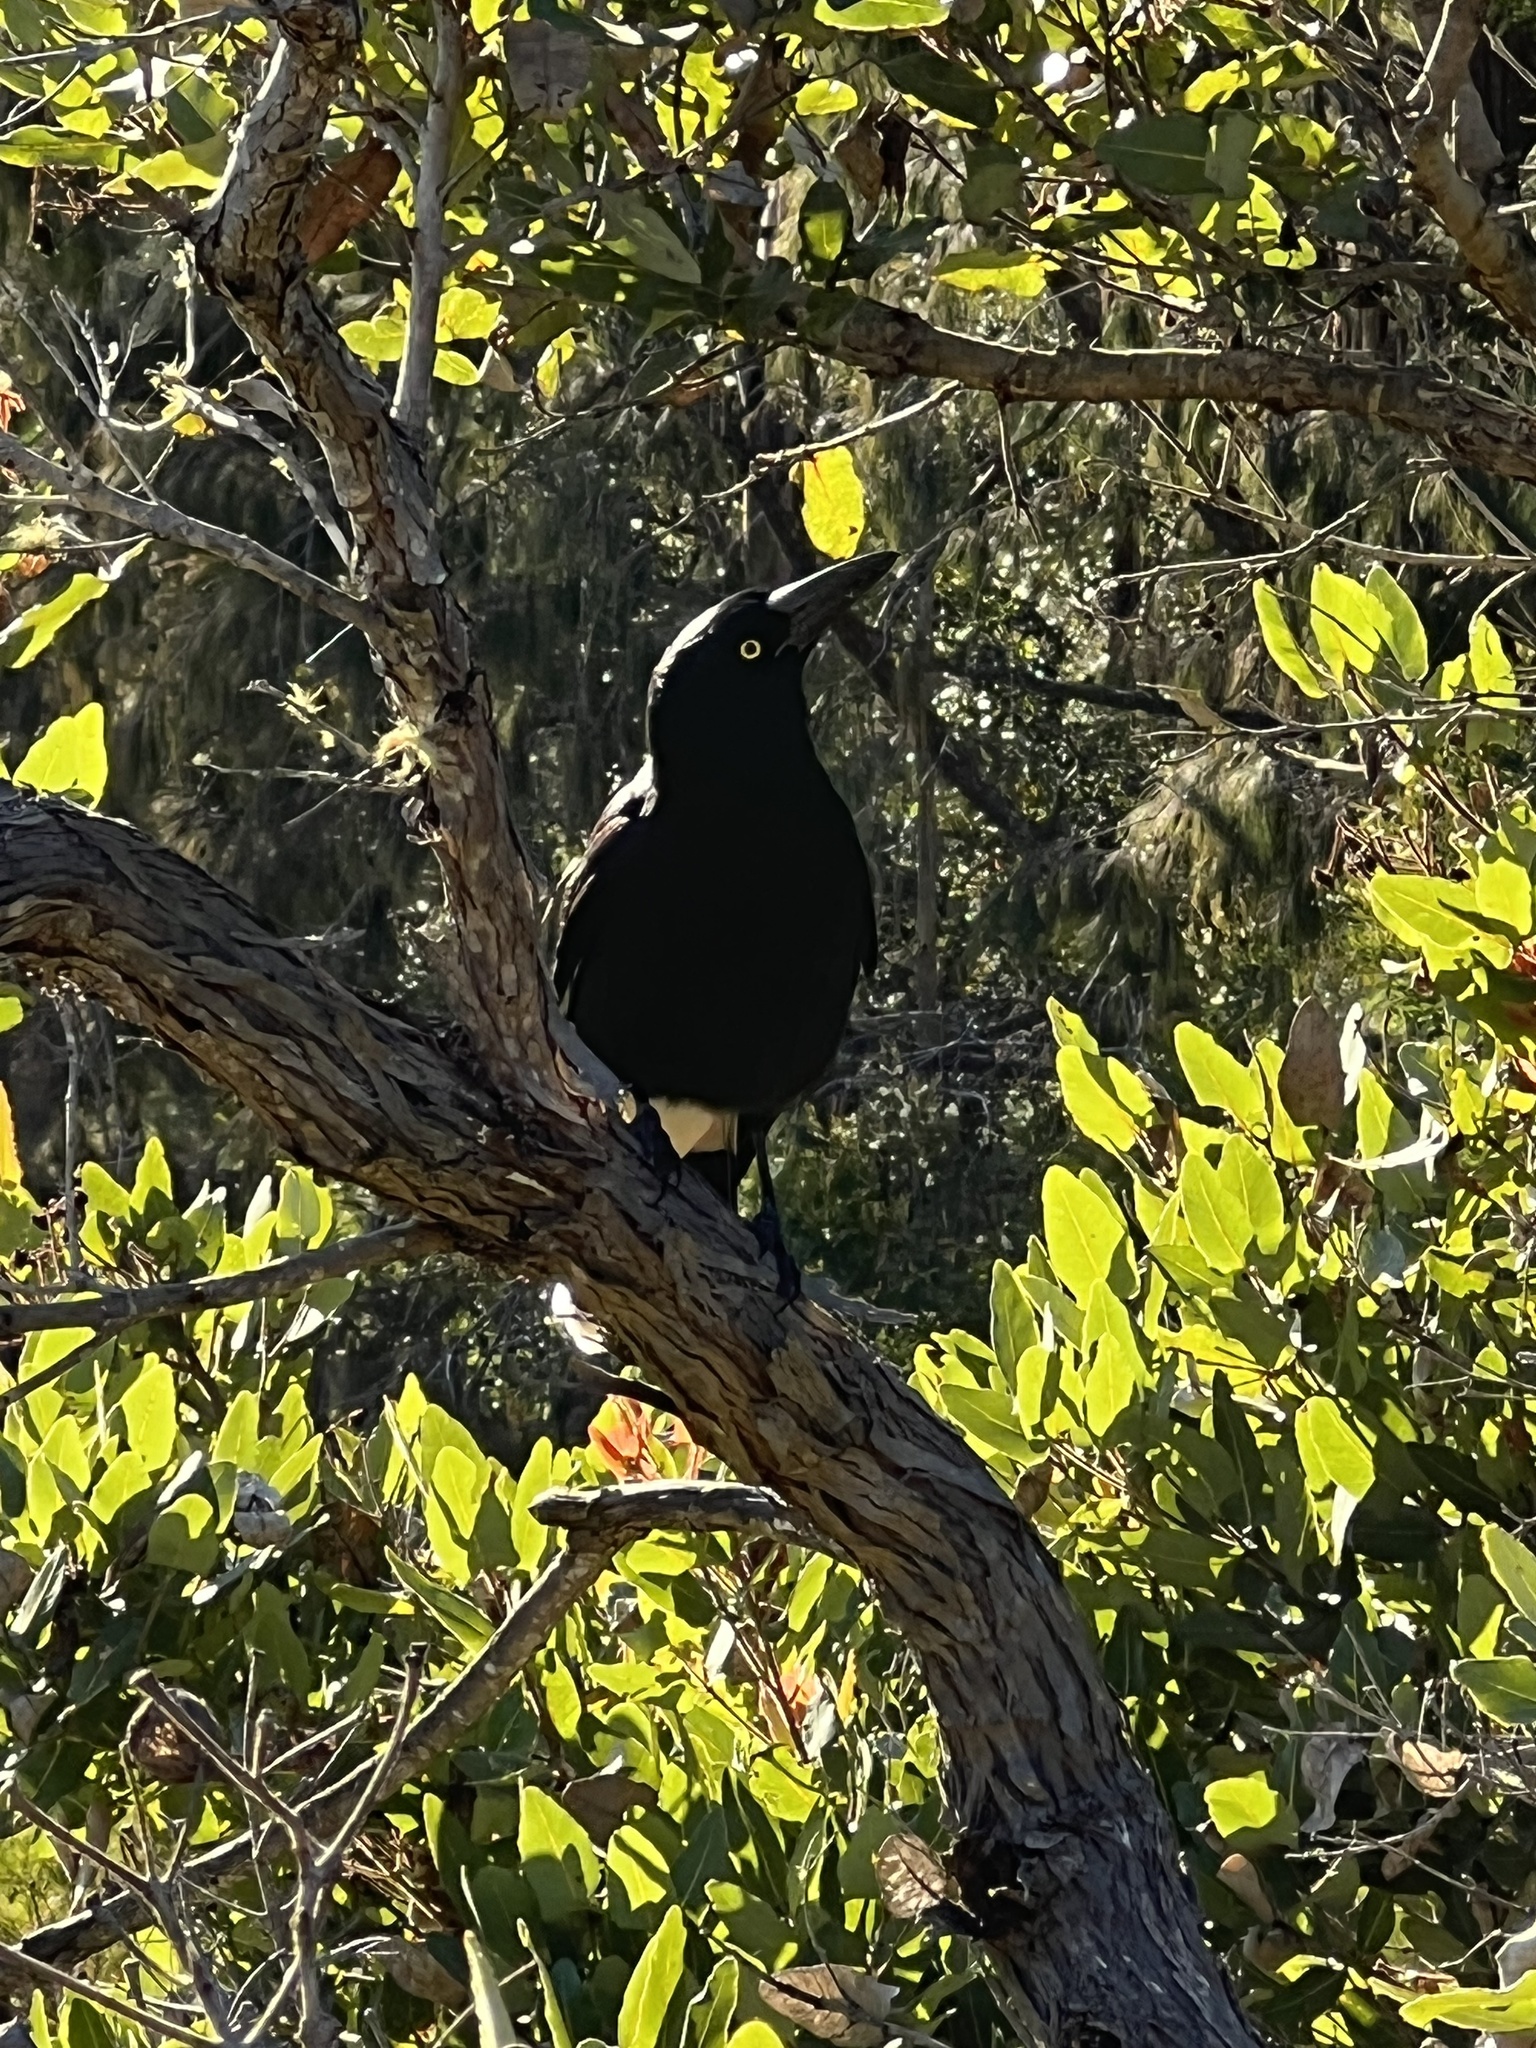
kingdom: Animalia
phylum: Chordata
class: Aves
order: Passeriformes
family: Cracticidae
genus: Strepera
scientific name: Strepera graculina
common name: Pied currawong
